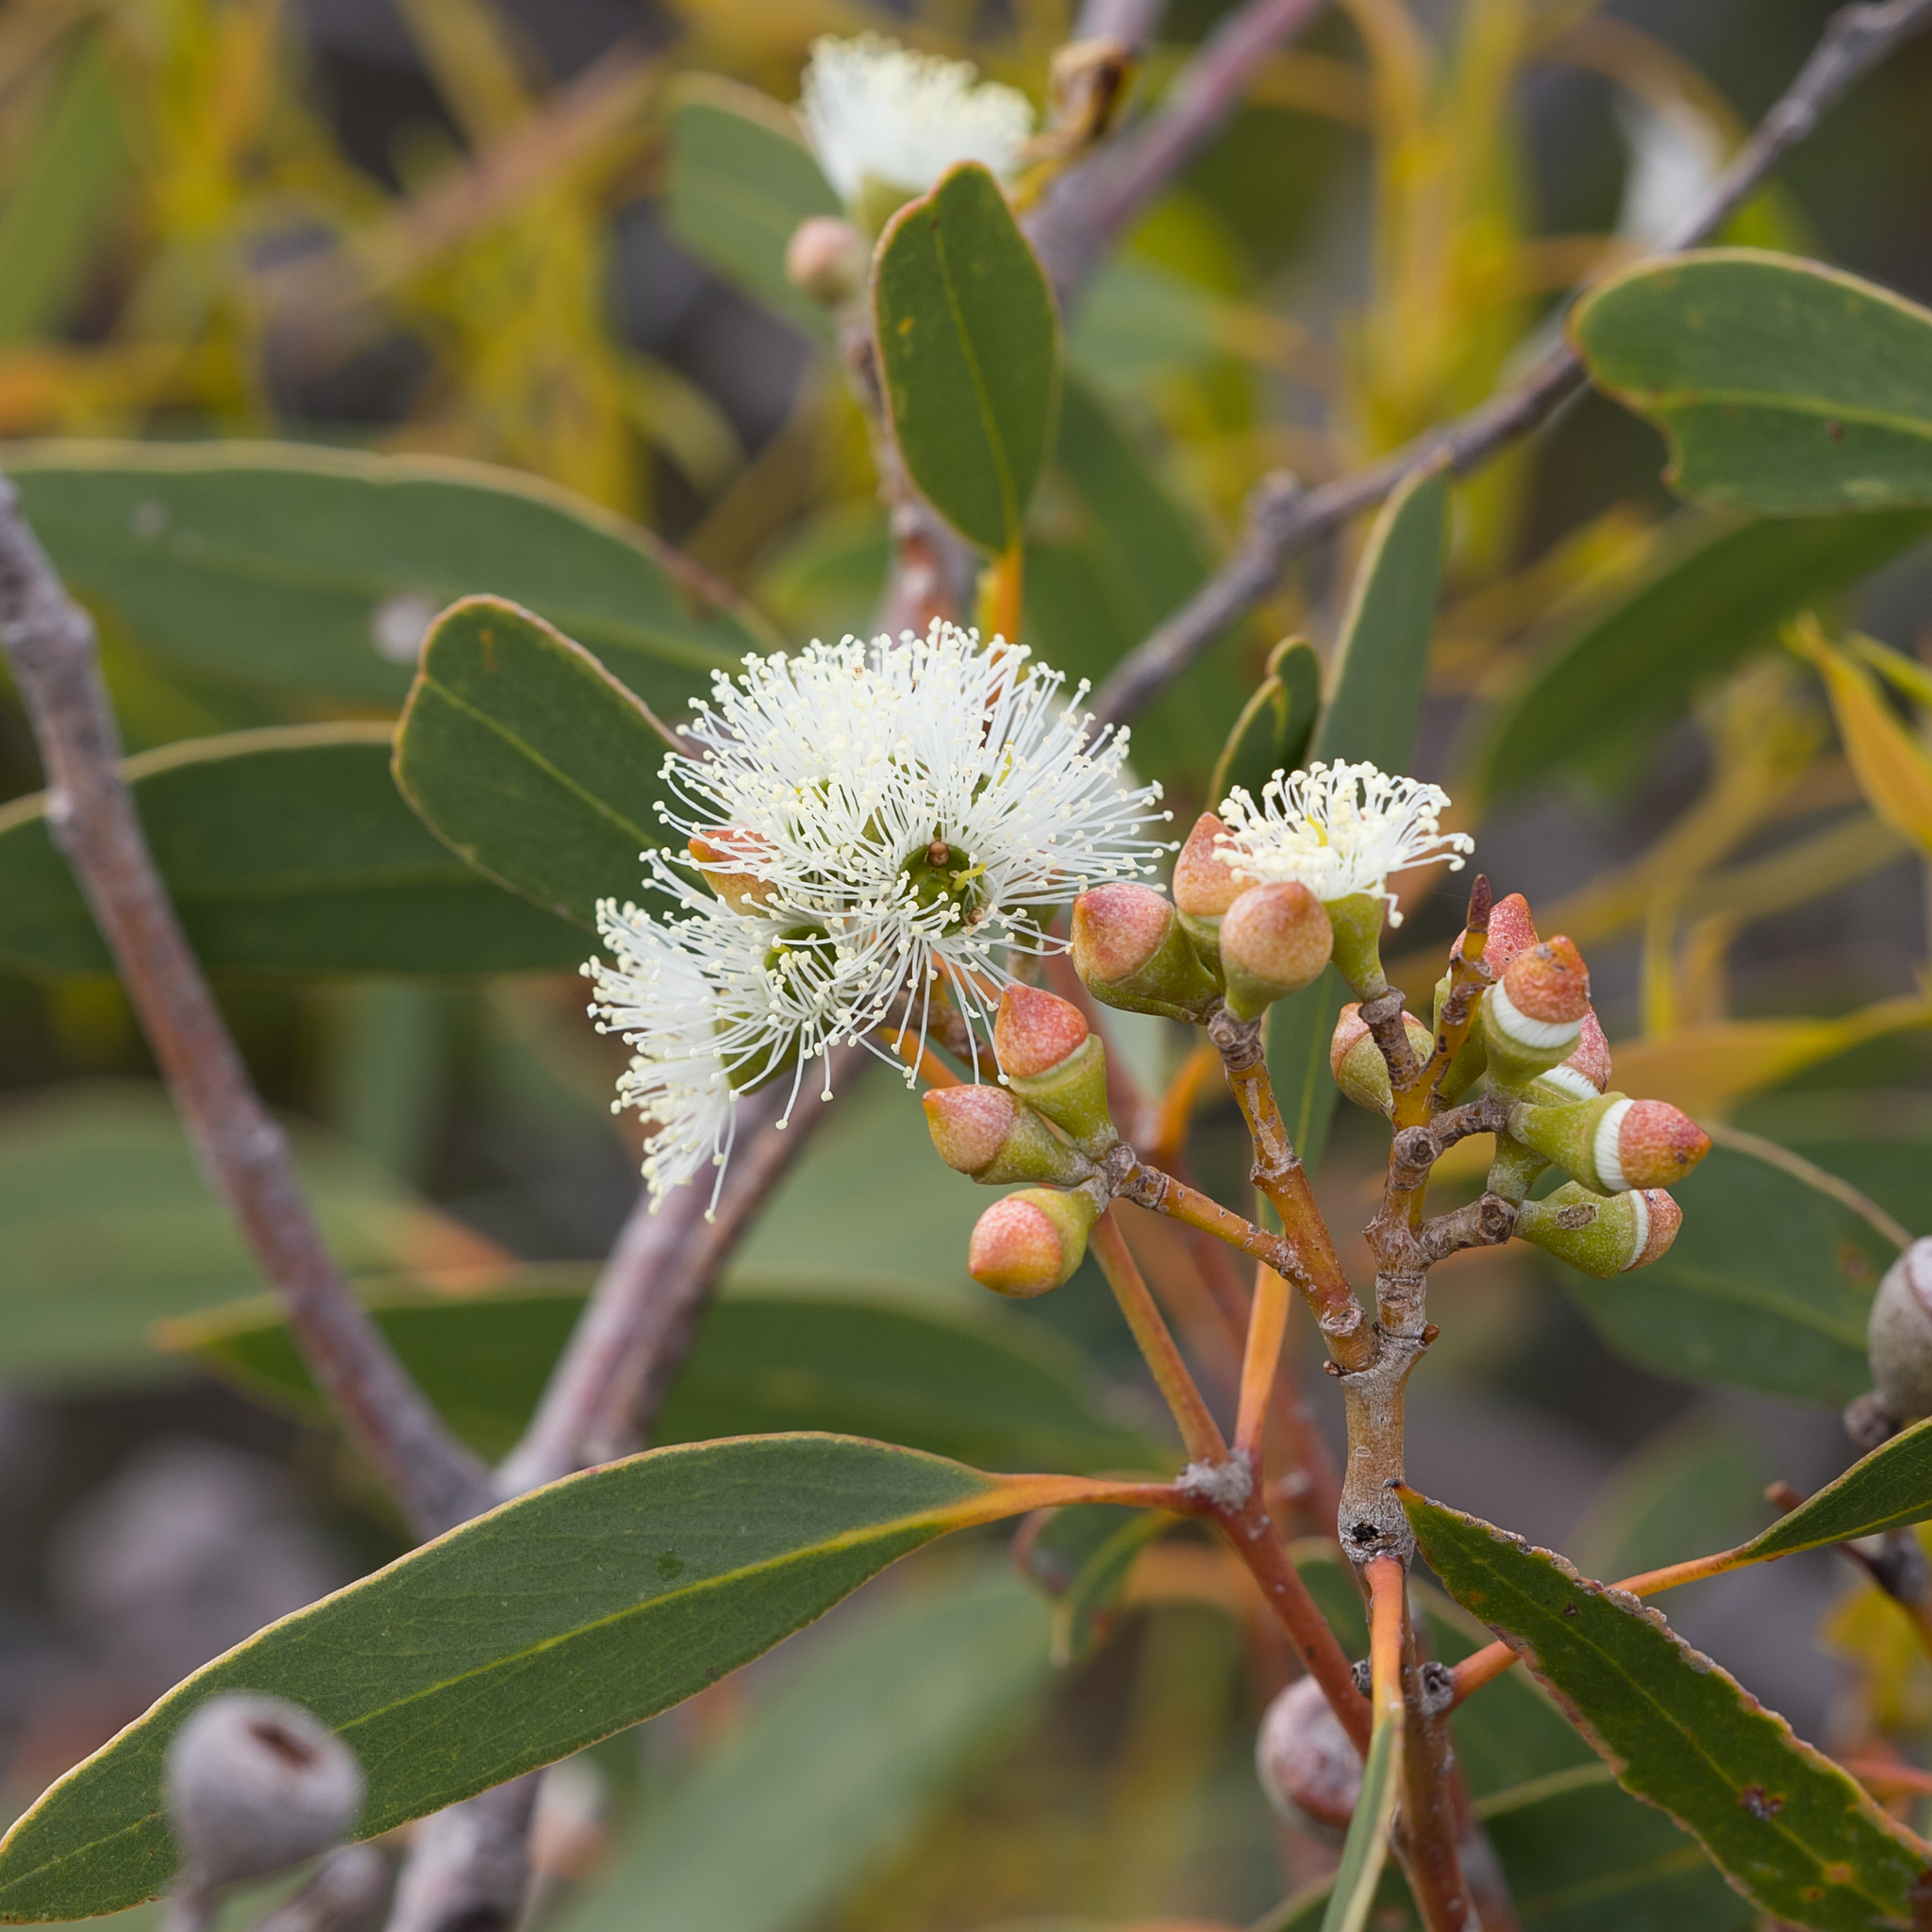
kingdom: Plantae
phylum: Tracheophyta
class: Magnoliopsida
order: Myrtales
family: Myrtaceae
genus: Eucalyptus
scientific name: Eucalyptus diversifolia
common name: Coastal white mallee
